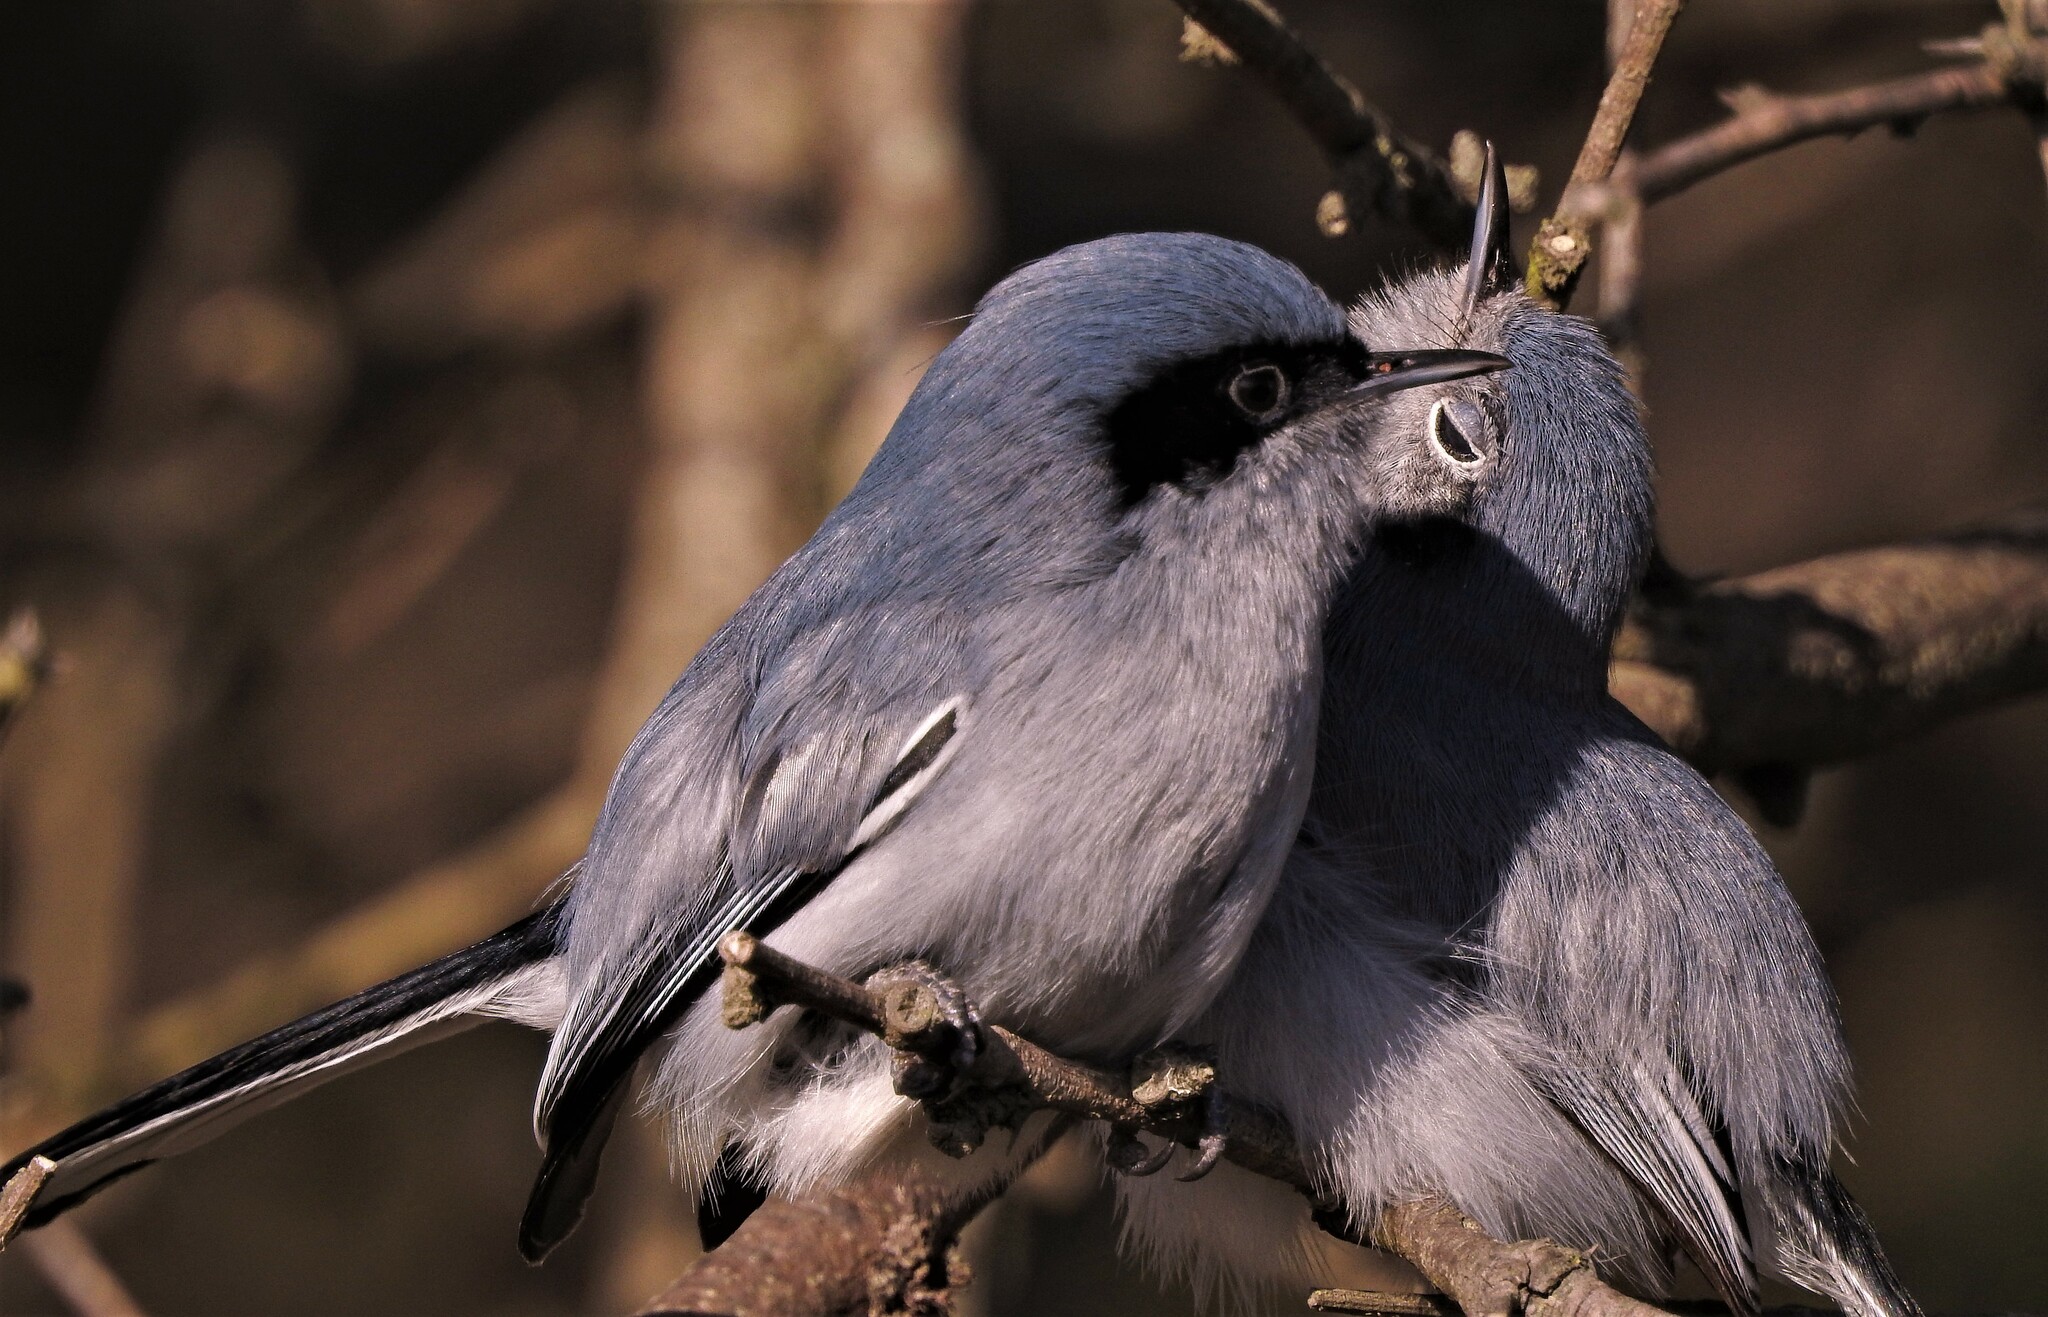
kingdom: Animalia
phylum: Chordata
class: Aves
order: Passeriformes
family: Polioptilidae
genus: Polioptila
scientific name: Polioptila dumicola
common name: Masked gnatcatcher
